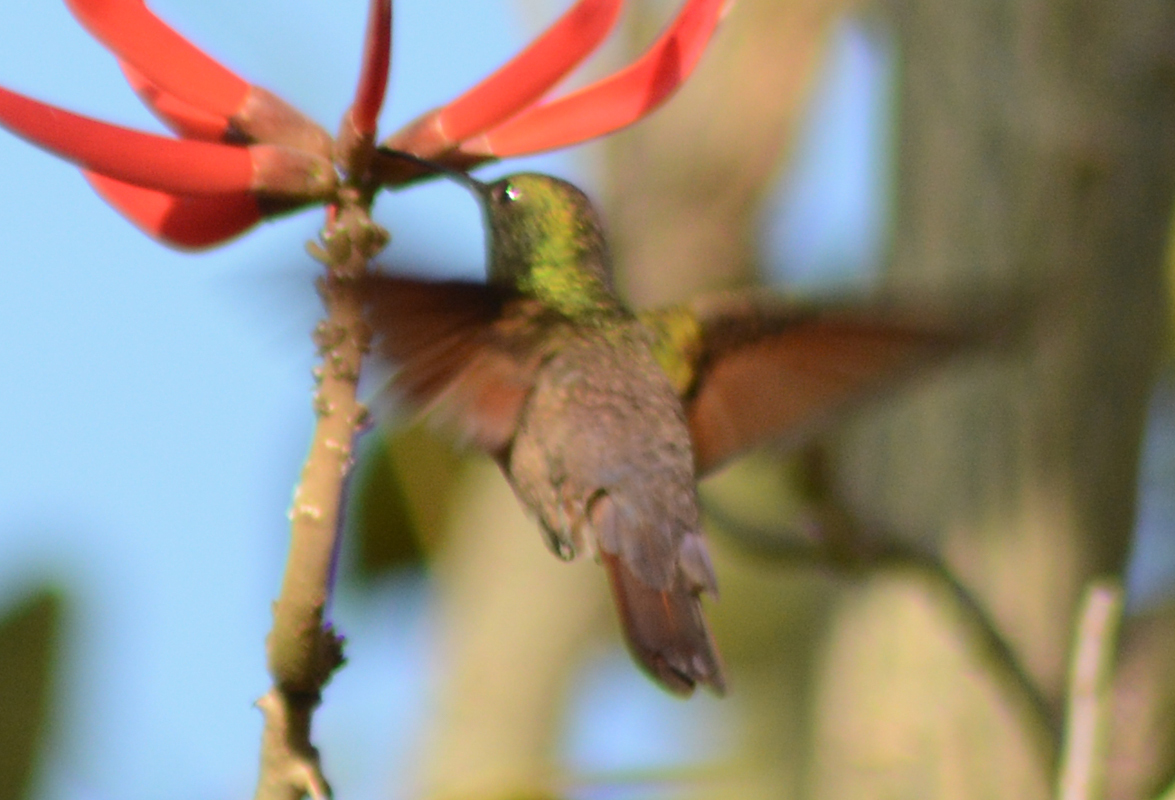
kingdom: Animalia
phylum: Chordata
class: Aves
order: Apodiformes
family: Trochilidae
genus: Saucerottia
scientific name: Saucerottia beryllina
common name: Berylline hummingbird
